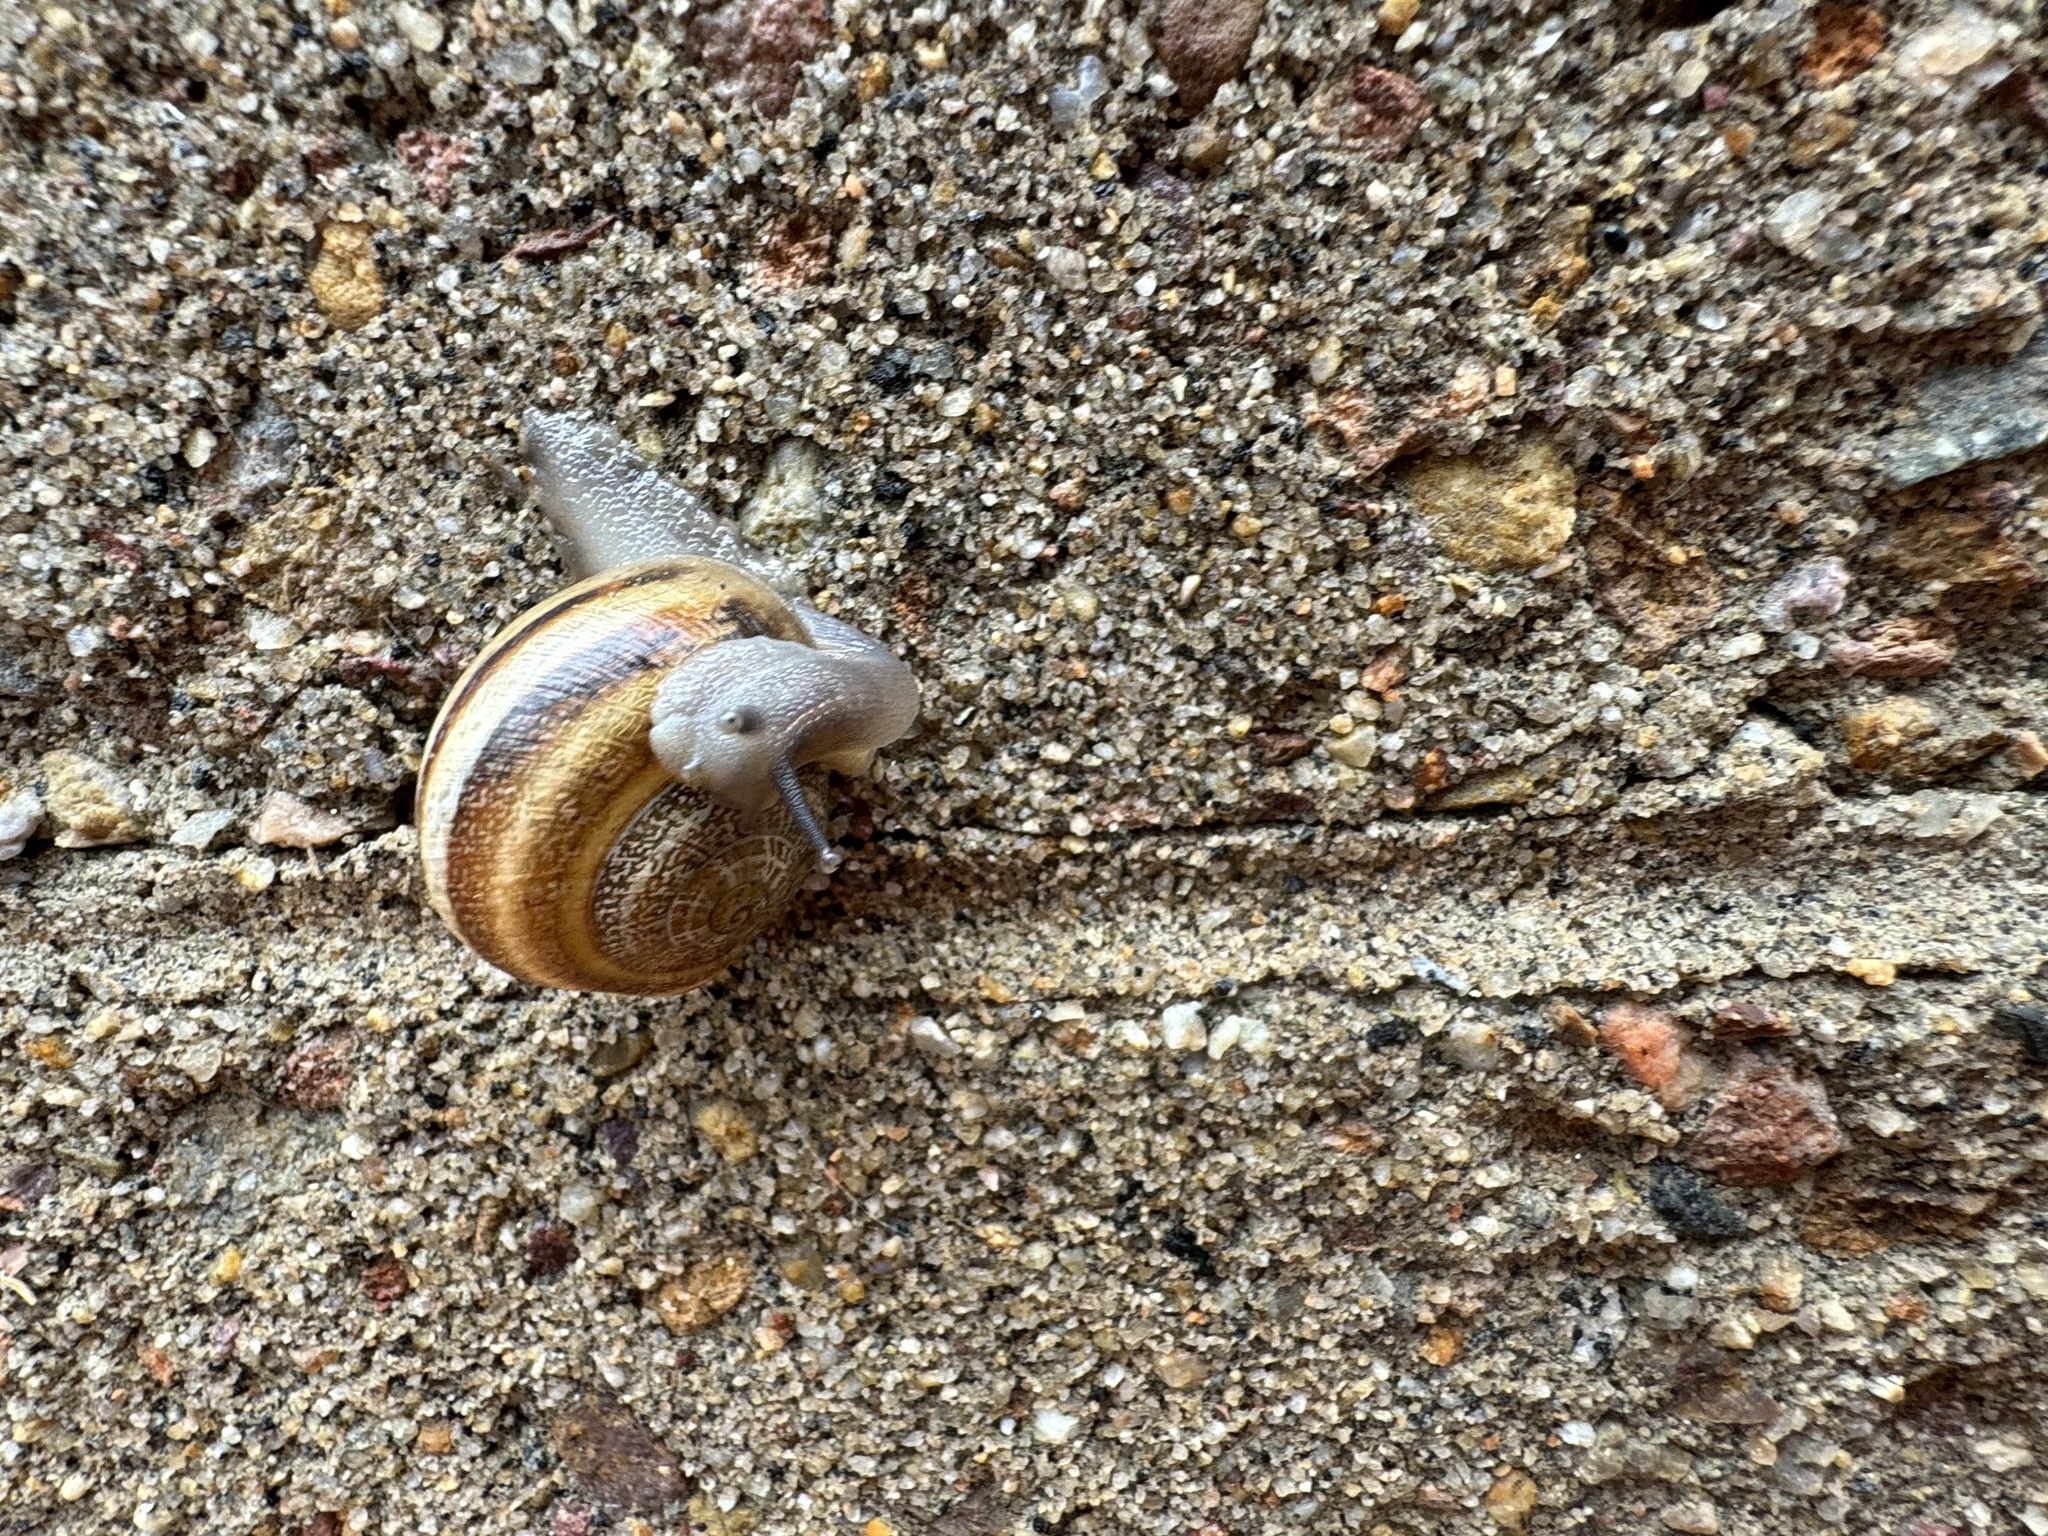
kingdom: Animalia
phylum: Mollusca
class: Gastropoda
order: Stylommatophora
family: Helicidae
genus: Otala
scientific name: Otala lactea
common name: Milk snail
